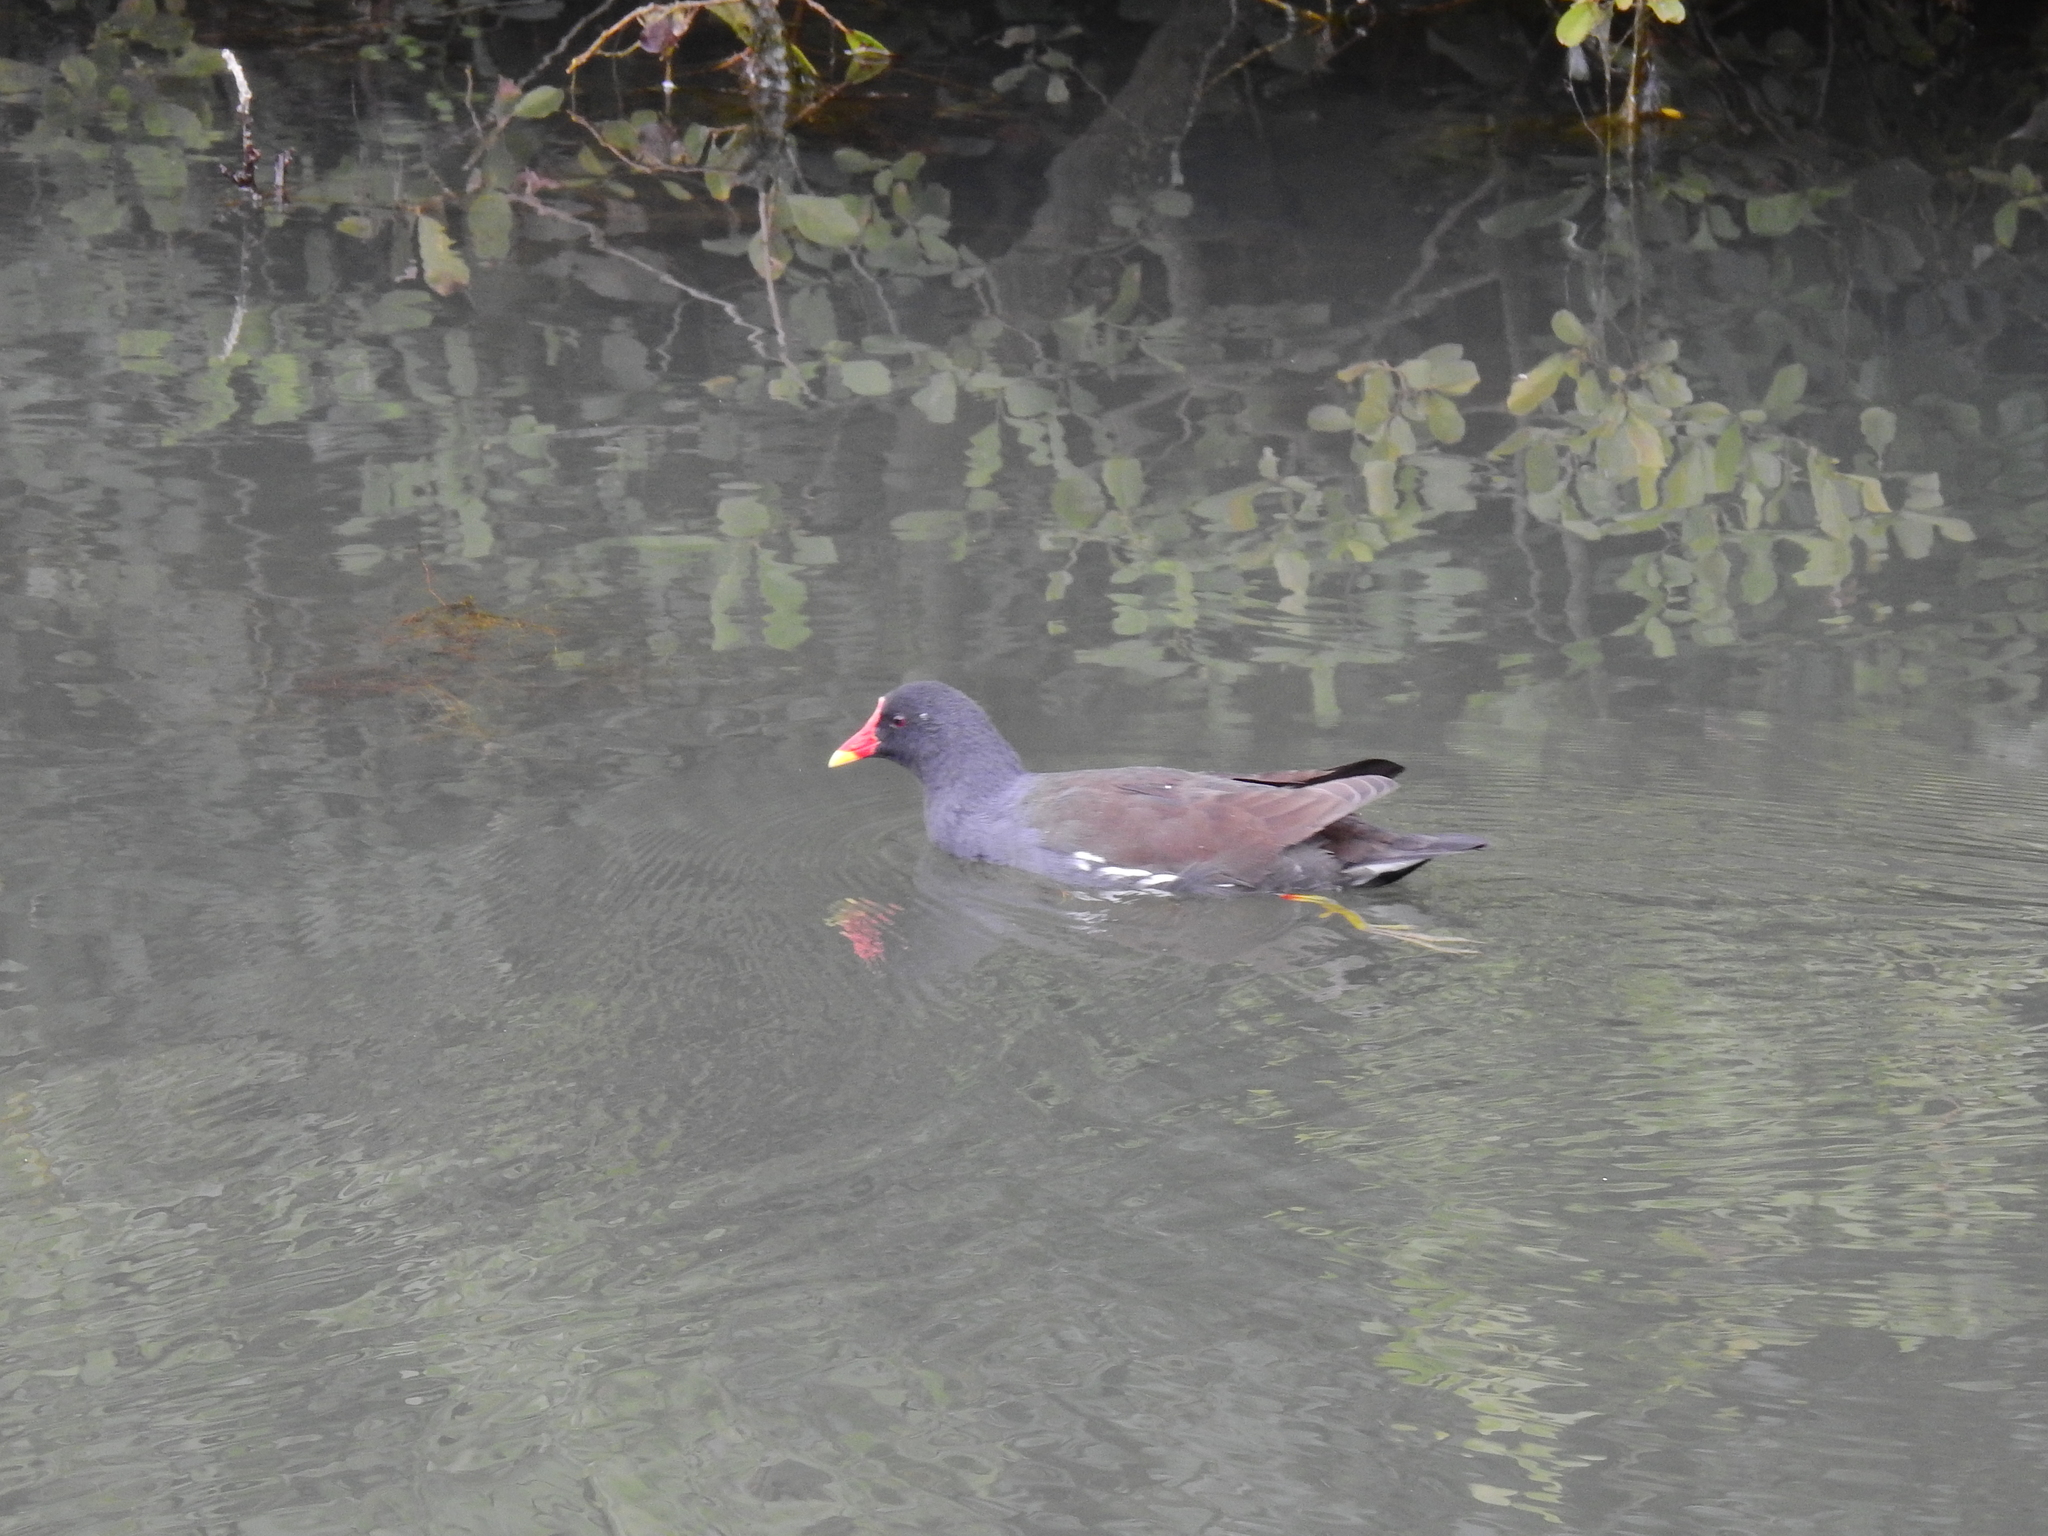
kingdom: Animalia
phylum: Chordata
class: Aves
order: Gruiformes
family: Rallidae
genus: Gallinula
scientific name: Gallinula chloropus
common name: Common moorhen
